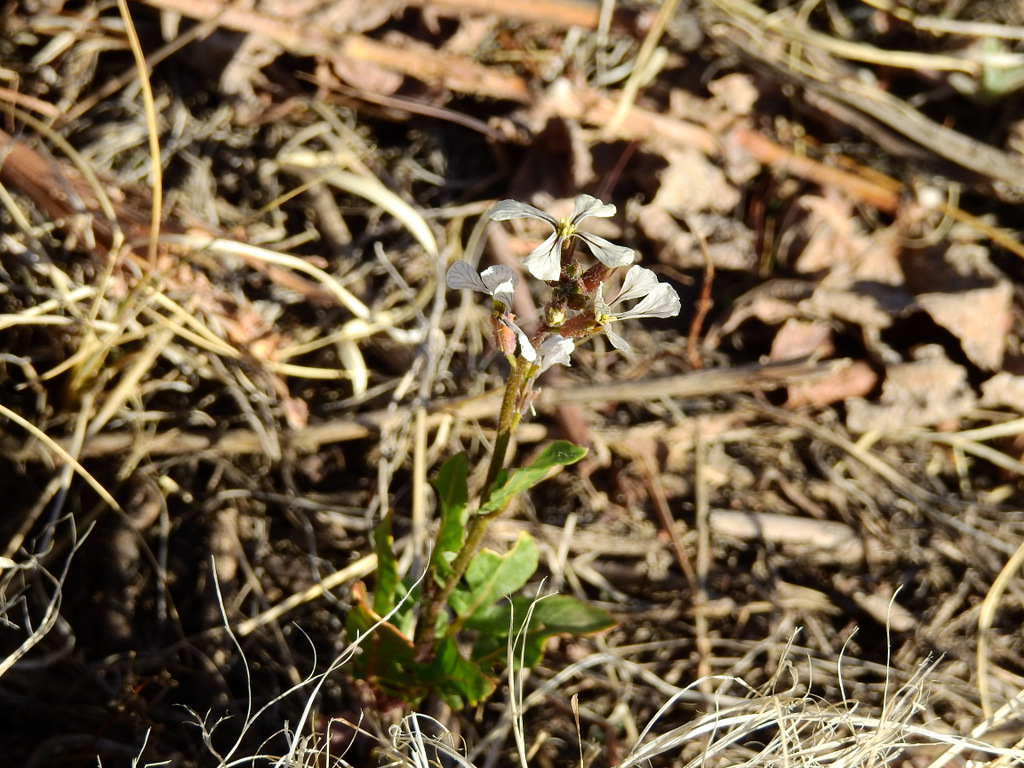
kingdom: Plantae
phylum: Tracheophyta
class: Magnoliopsida
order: Brassicales
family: Brassicaceae
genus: Eruca
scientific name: Eruca vesicaria
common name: Garden rocket
